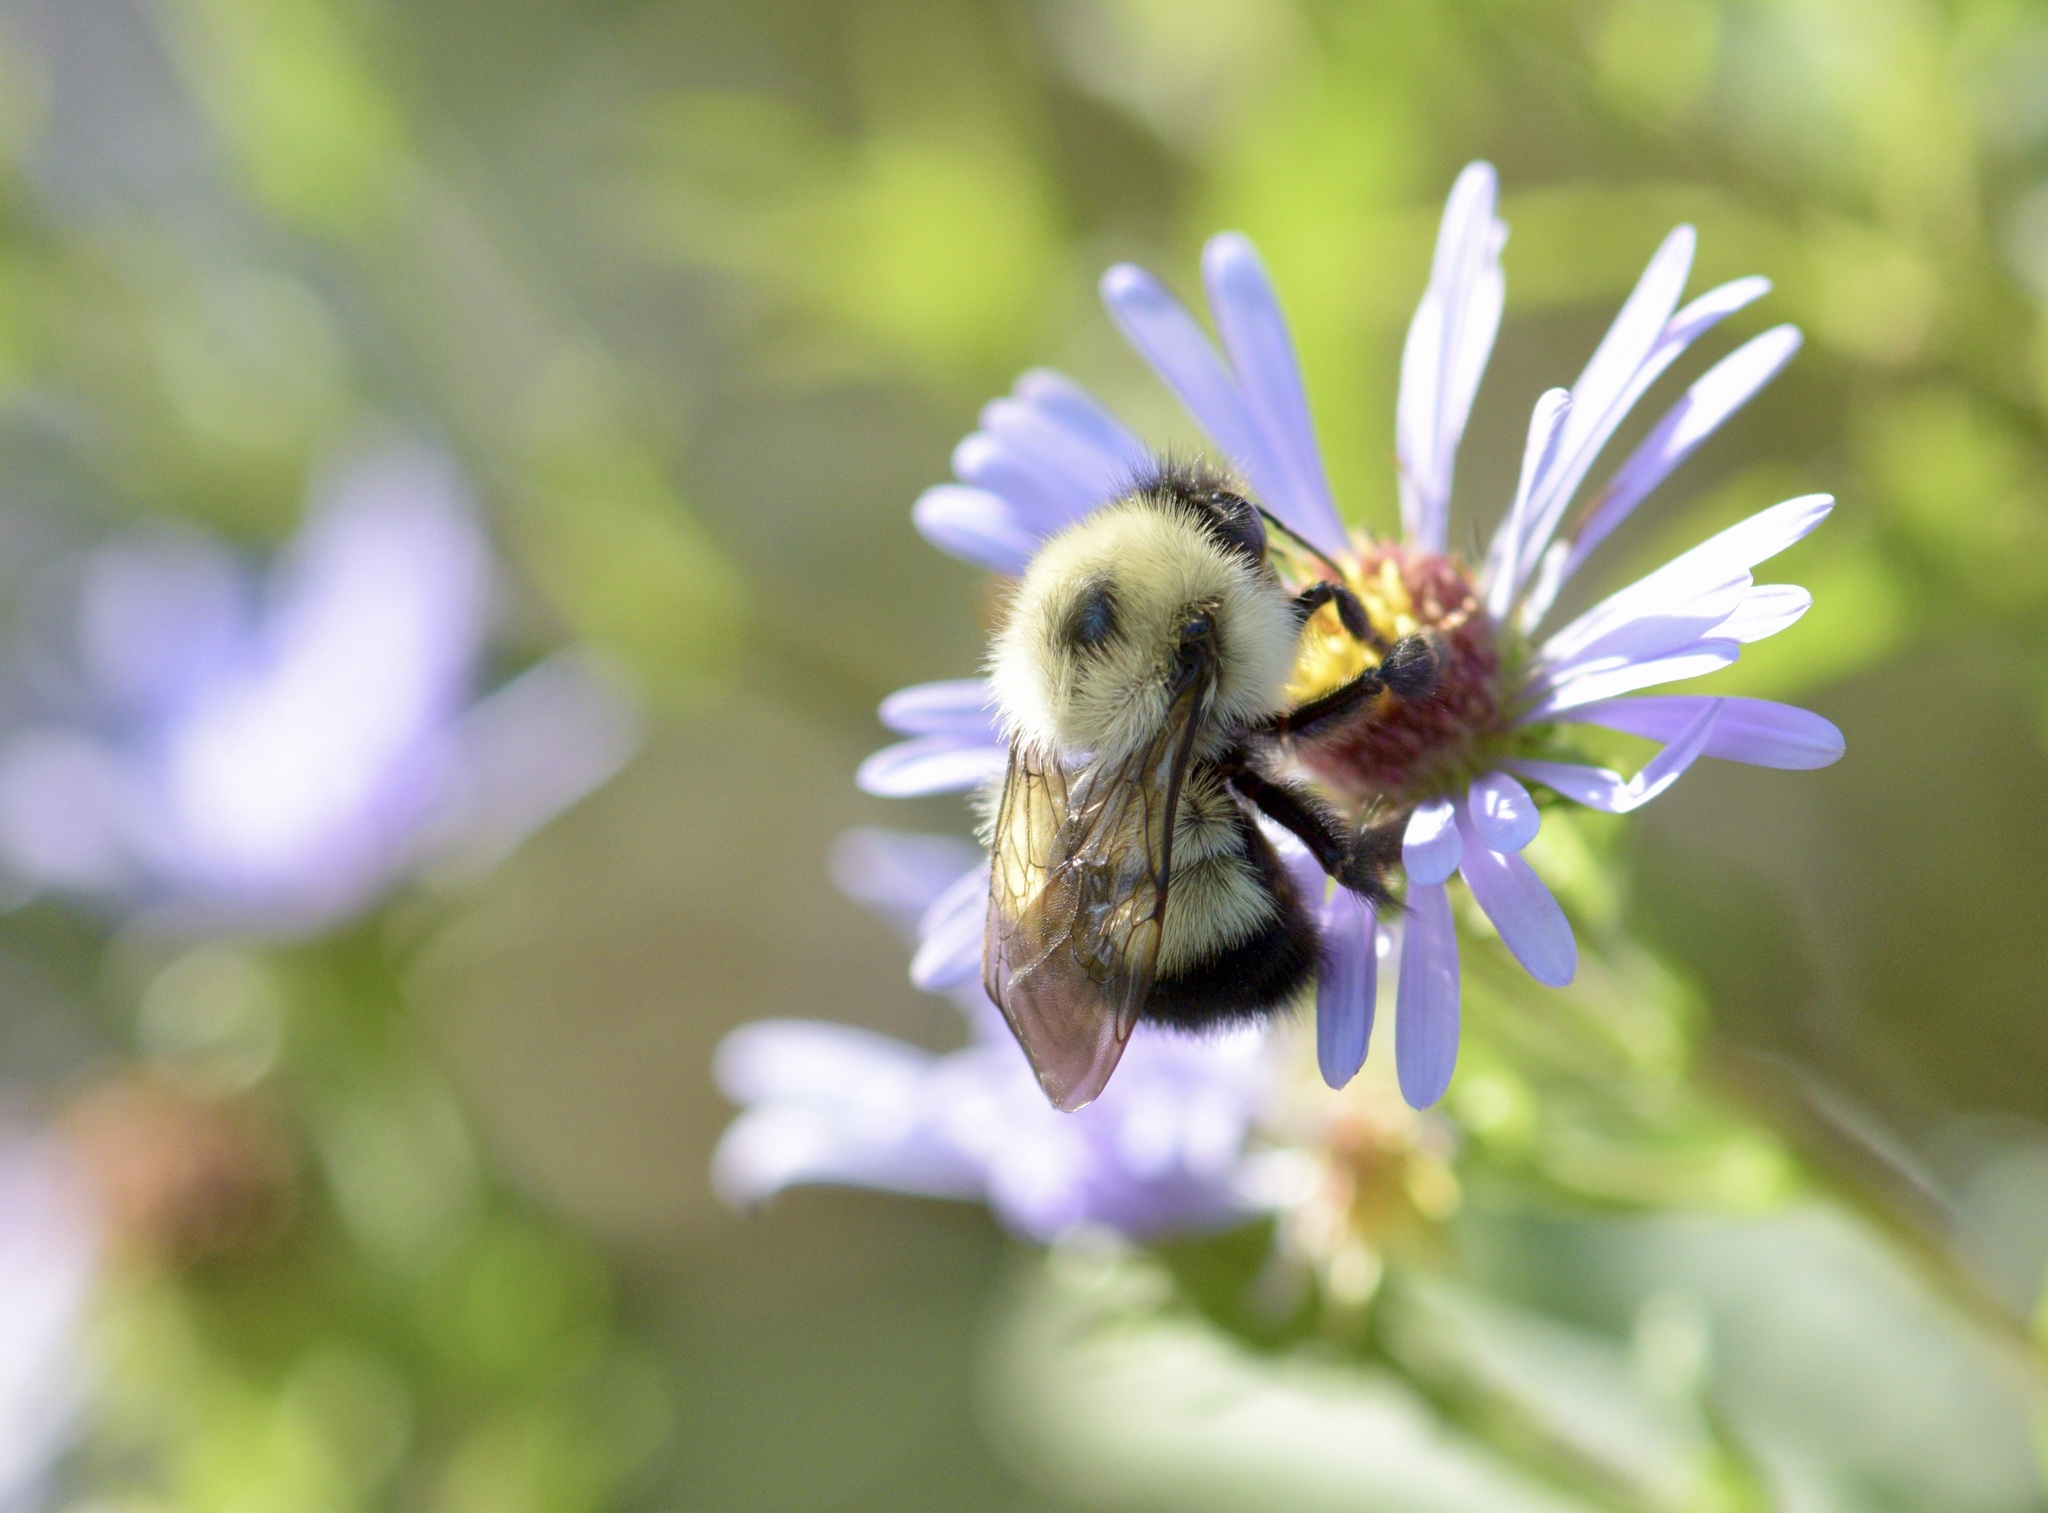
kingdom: Animalia
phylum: Arthropoda
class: Insecta
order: Hymenoptera
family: Apidae
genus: Pyrobombus
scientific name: Pyrobombus
